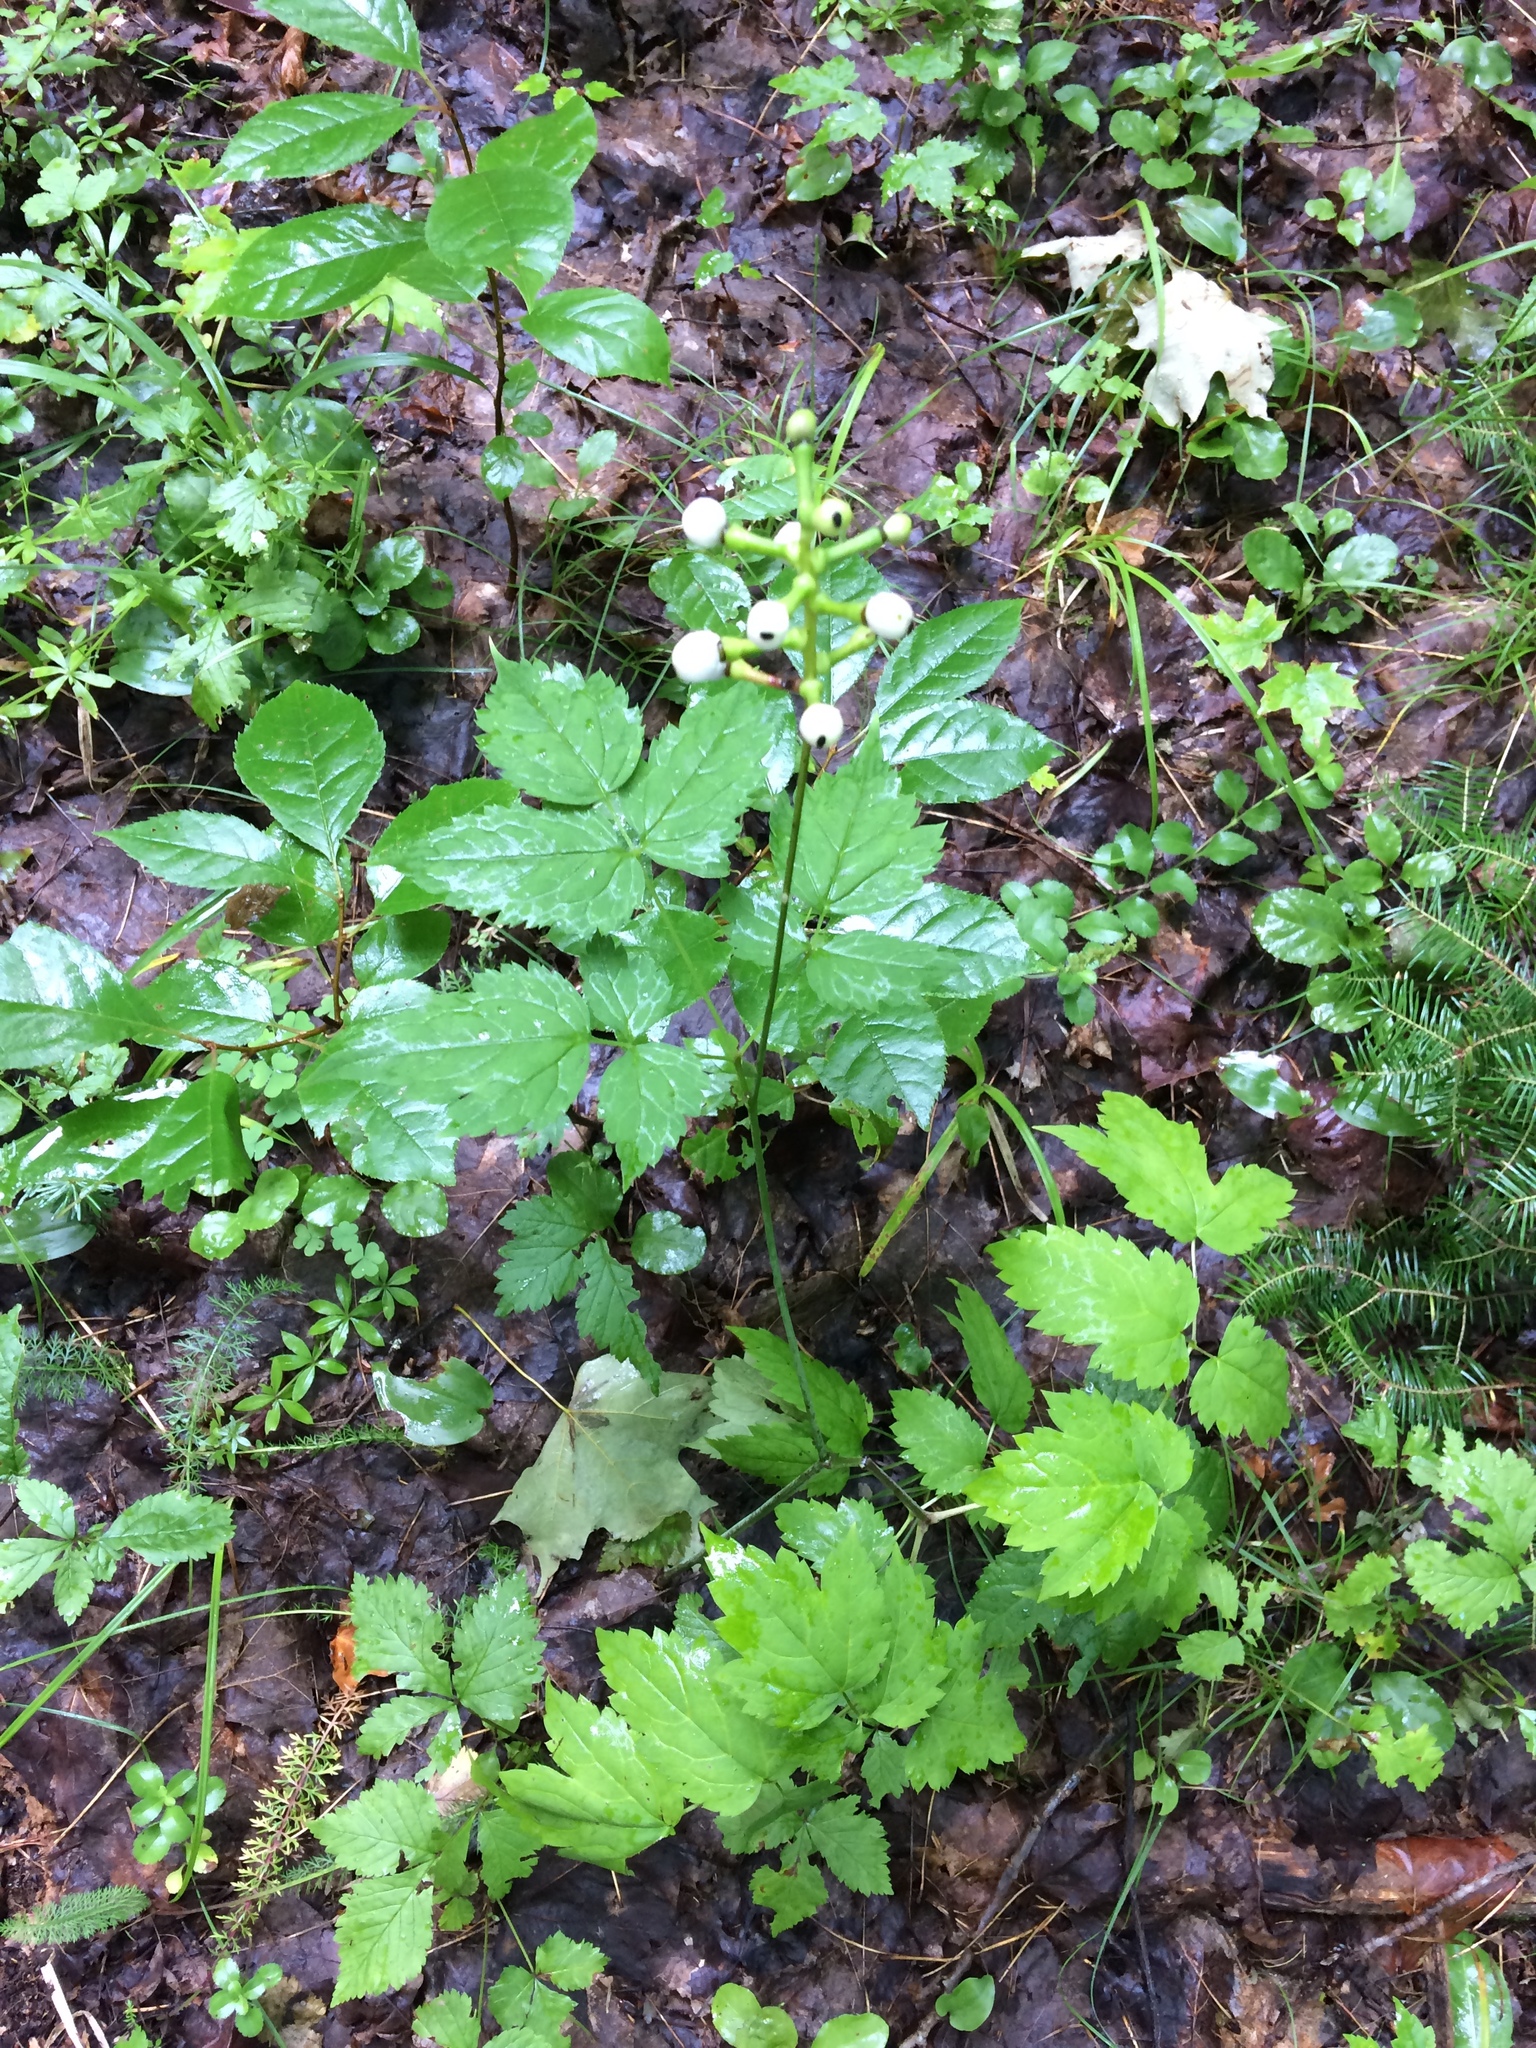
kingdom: Plantae
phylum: Tracheophyta
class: Magnoliopsida
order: Ranunculales
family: Ranunculaceae
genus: Actaea
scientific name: Actaea pachypoda
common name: Doll's-eyes
